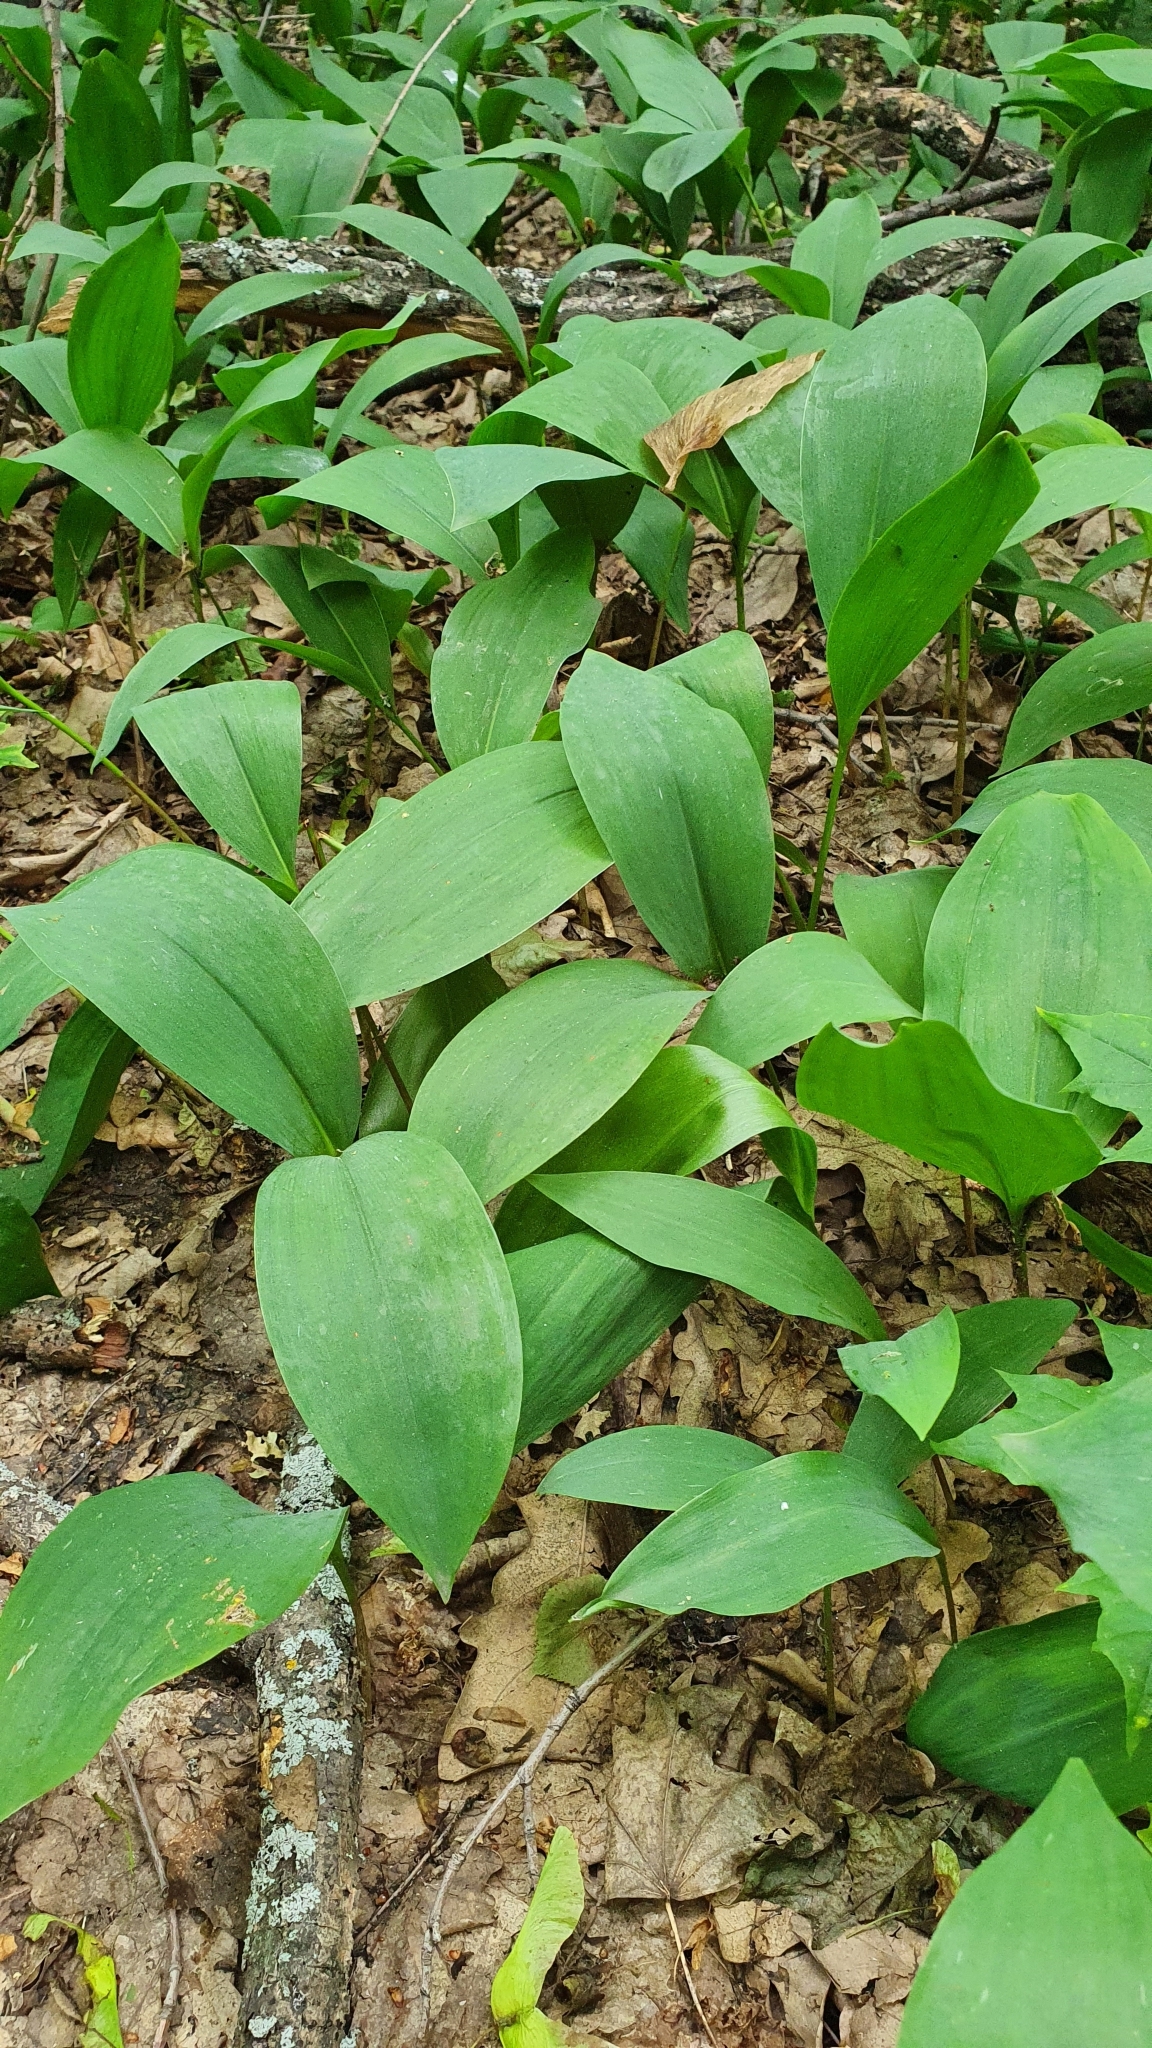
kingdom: Plantae
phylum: Tracheophyta
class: Liliopsida
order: Asparagales
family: Asparagaceae
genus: Convallaria
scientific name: Convallaria majalis
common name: Lily-of-the-valley
